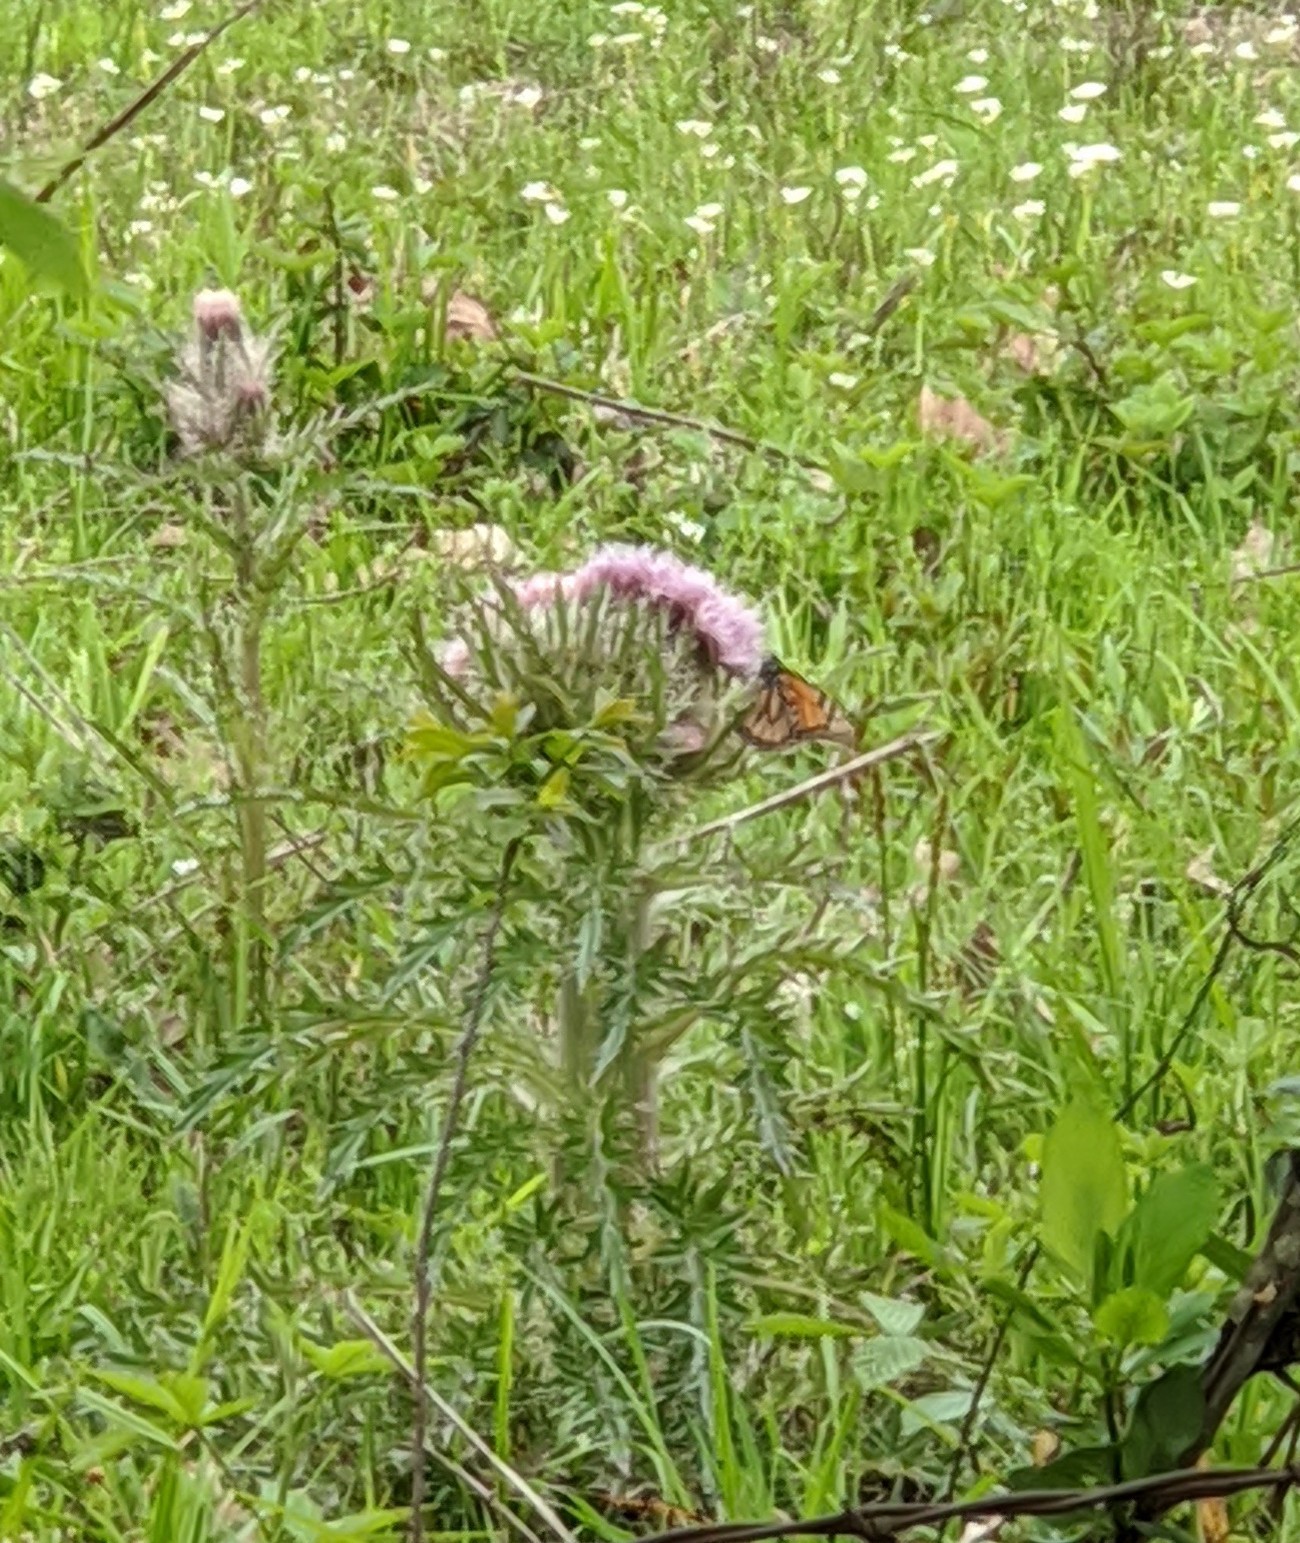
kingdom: Animalia
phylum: Arthropoda
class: Insecta
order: Lepidoptera
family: Nymphalidae
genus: Danaus
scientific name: Danaus plexippus
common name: Monarch
